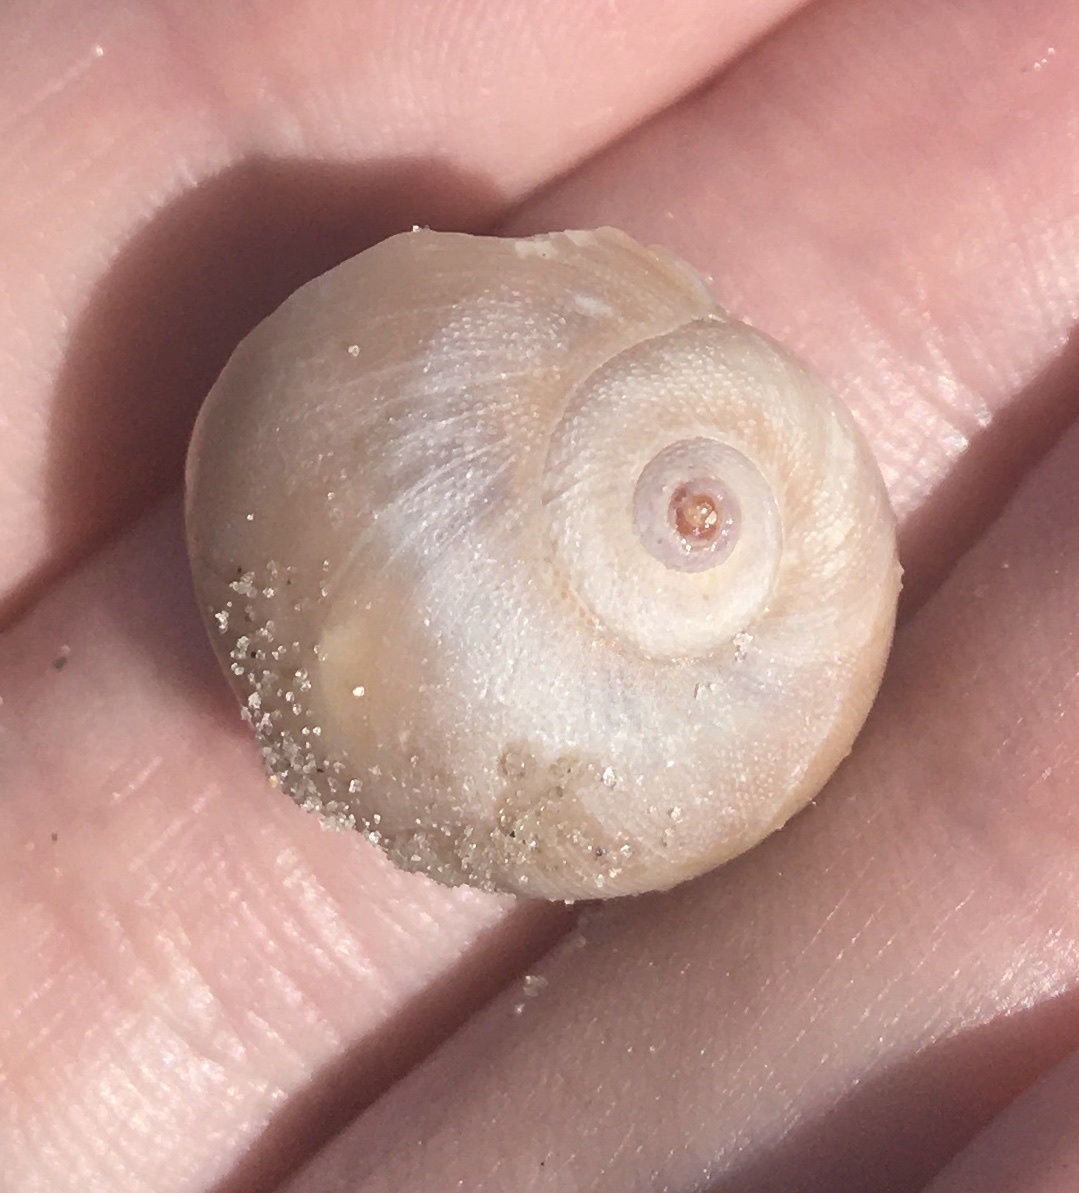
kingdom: Animalia
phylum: Mollusca
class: Gastropoda
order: Littorinimorpha
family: Naticidae
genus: Neverita
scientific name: Neverita duplicata
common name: Lobed moonsnail
